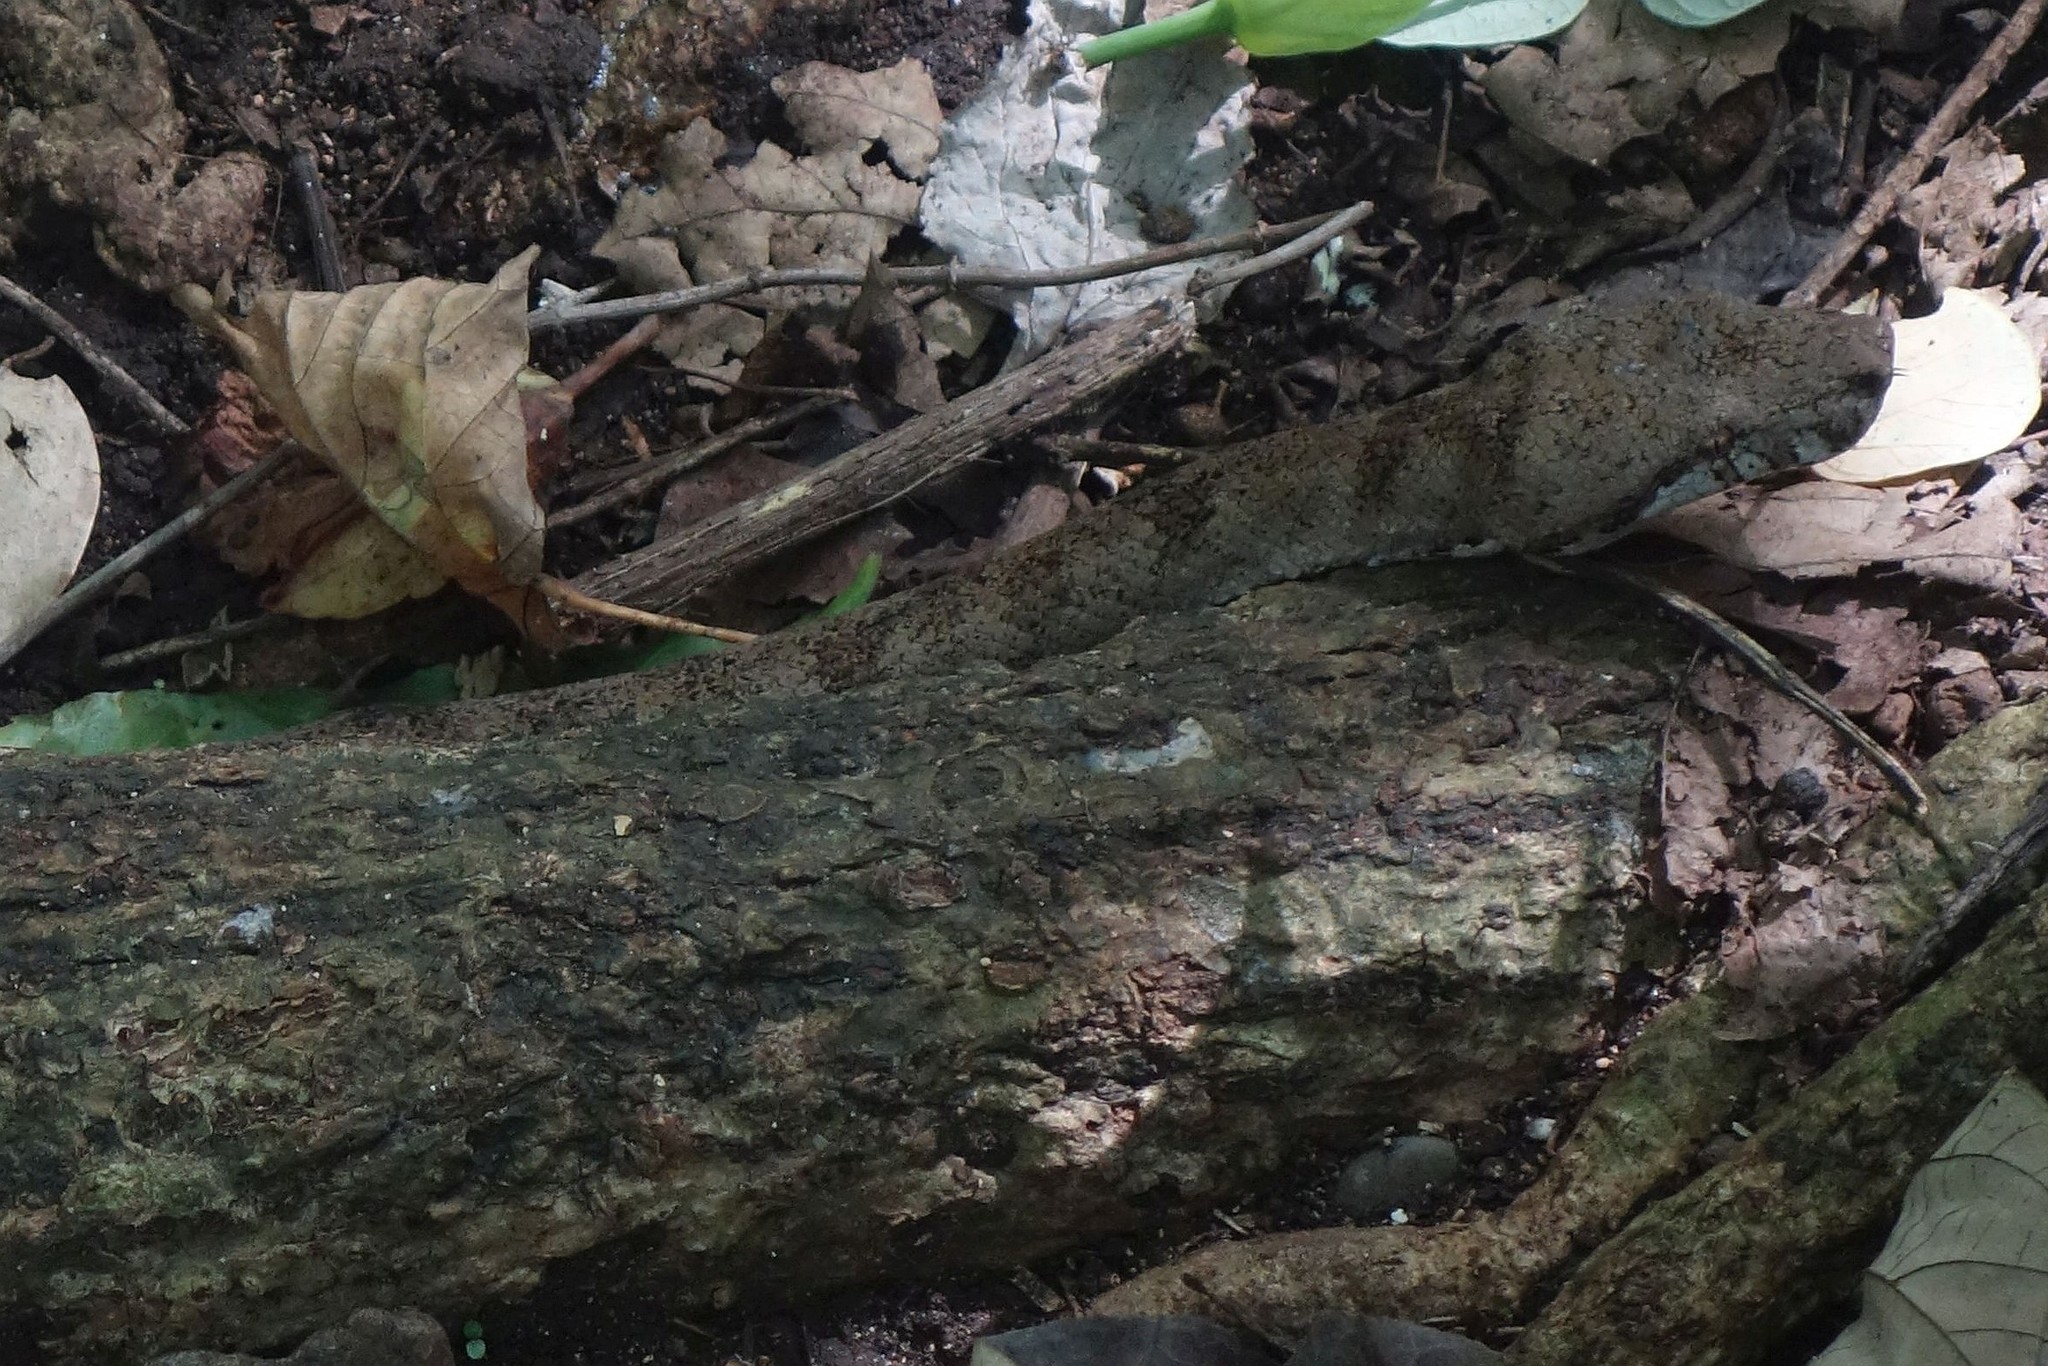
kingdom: Animalia
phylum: Chordata
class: Squamata
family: Boidae
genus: Candoia
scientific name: Candoia bibroni
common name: Fiji island boa
